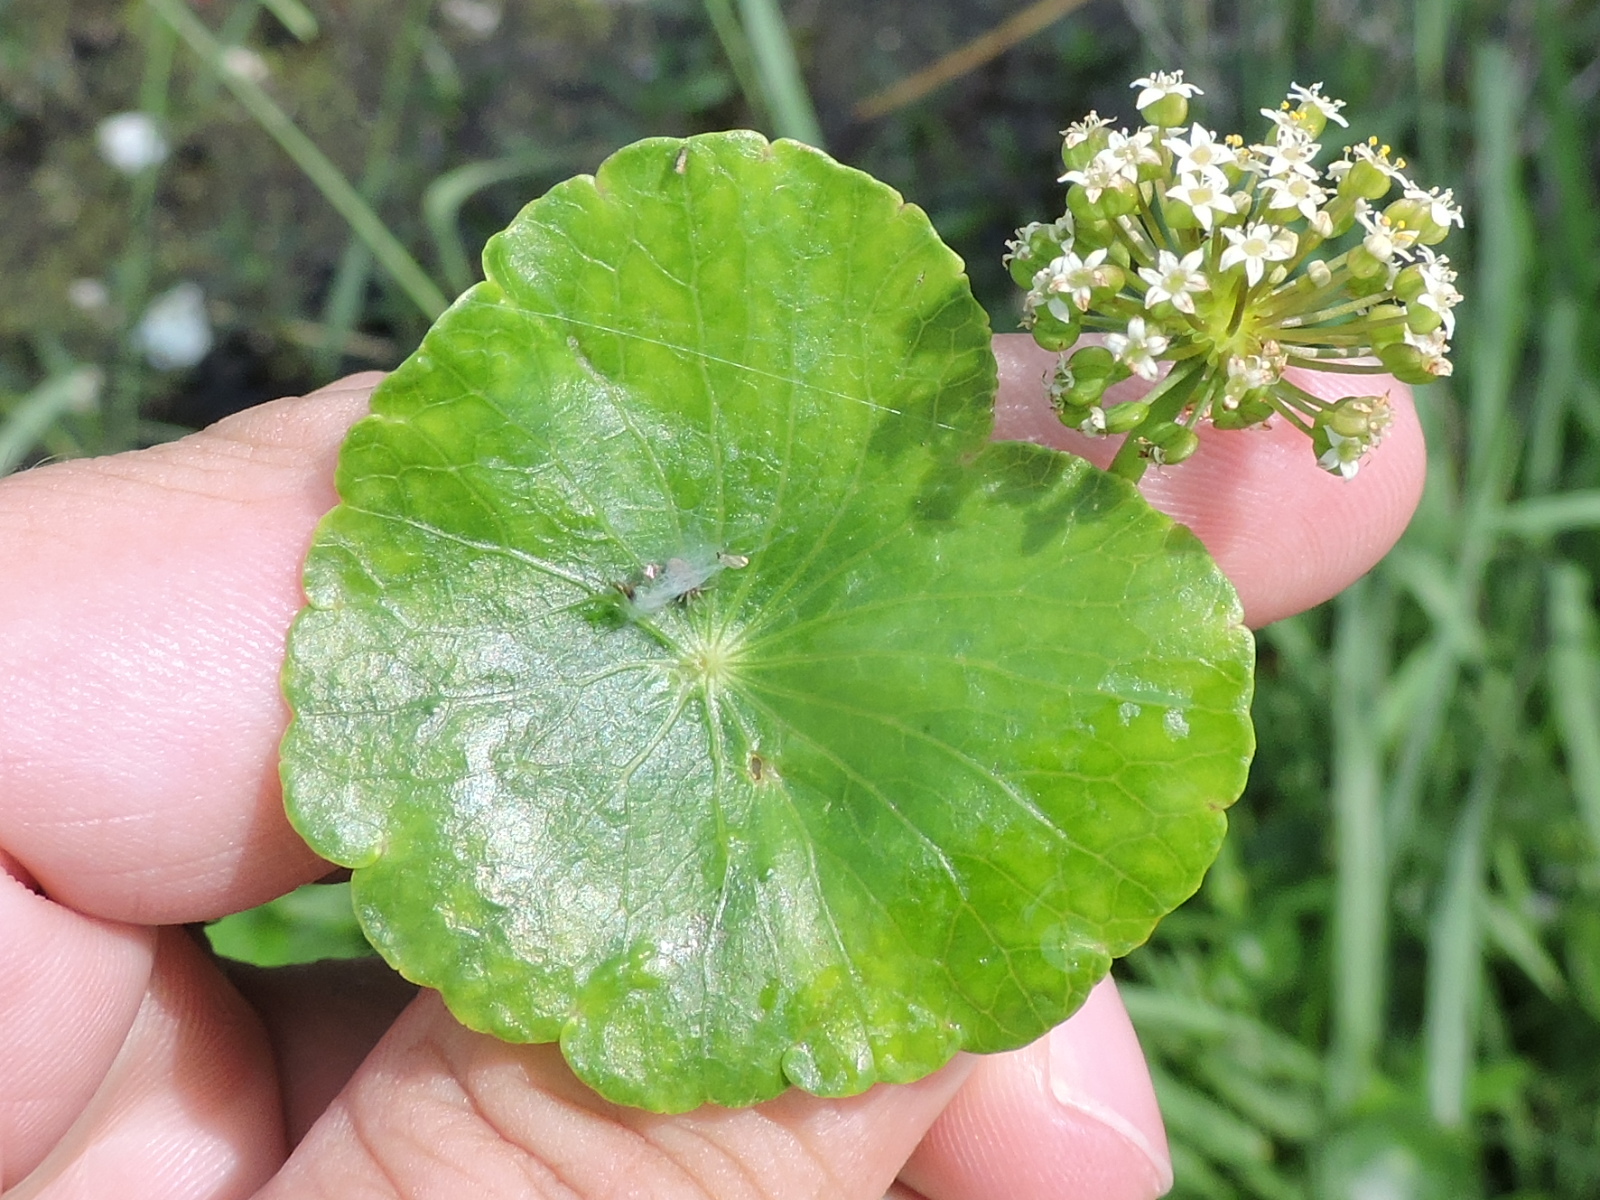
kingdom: Plantae
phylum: Tracheophyta
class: Magnoliopsida
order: Apiales
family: Araliaceae
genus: Hydrocotyle
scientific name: Hydrocotyle umbellata
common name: Water pennywort
